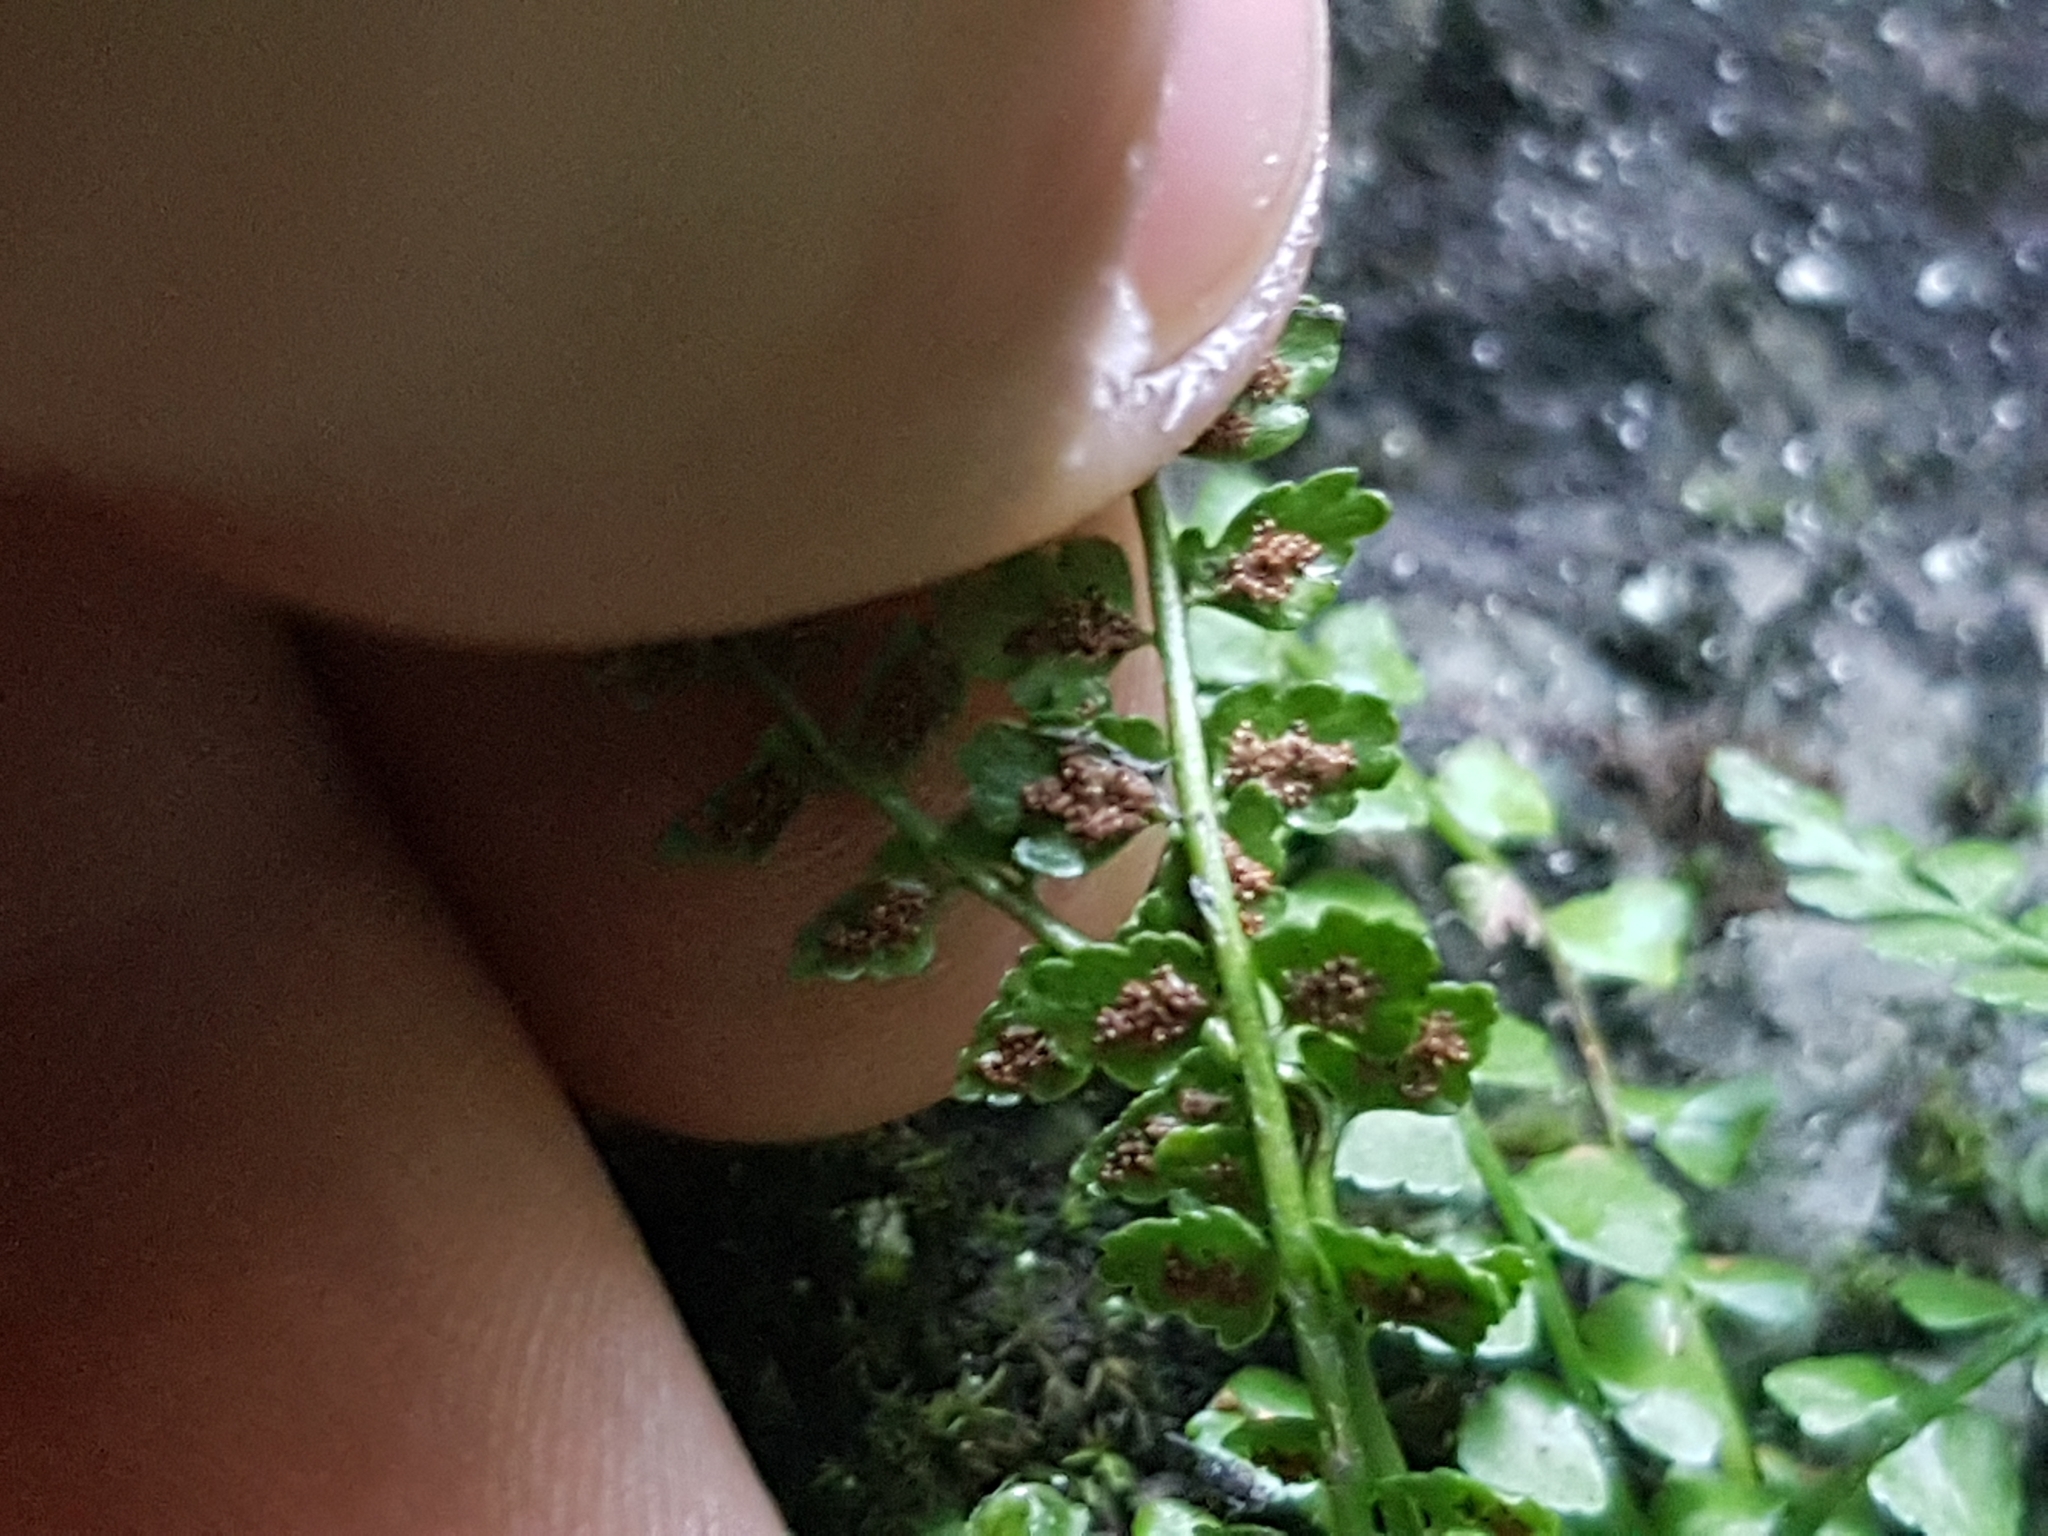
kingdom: Plantae
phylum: Tracheophyta
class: Polypodiopsida
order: Polypodiales
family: Aspleniaceae
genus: Asplenium
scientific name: Asplenium trichomanes
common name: Maidenhair spleenwort
